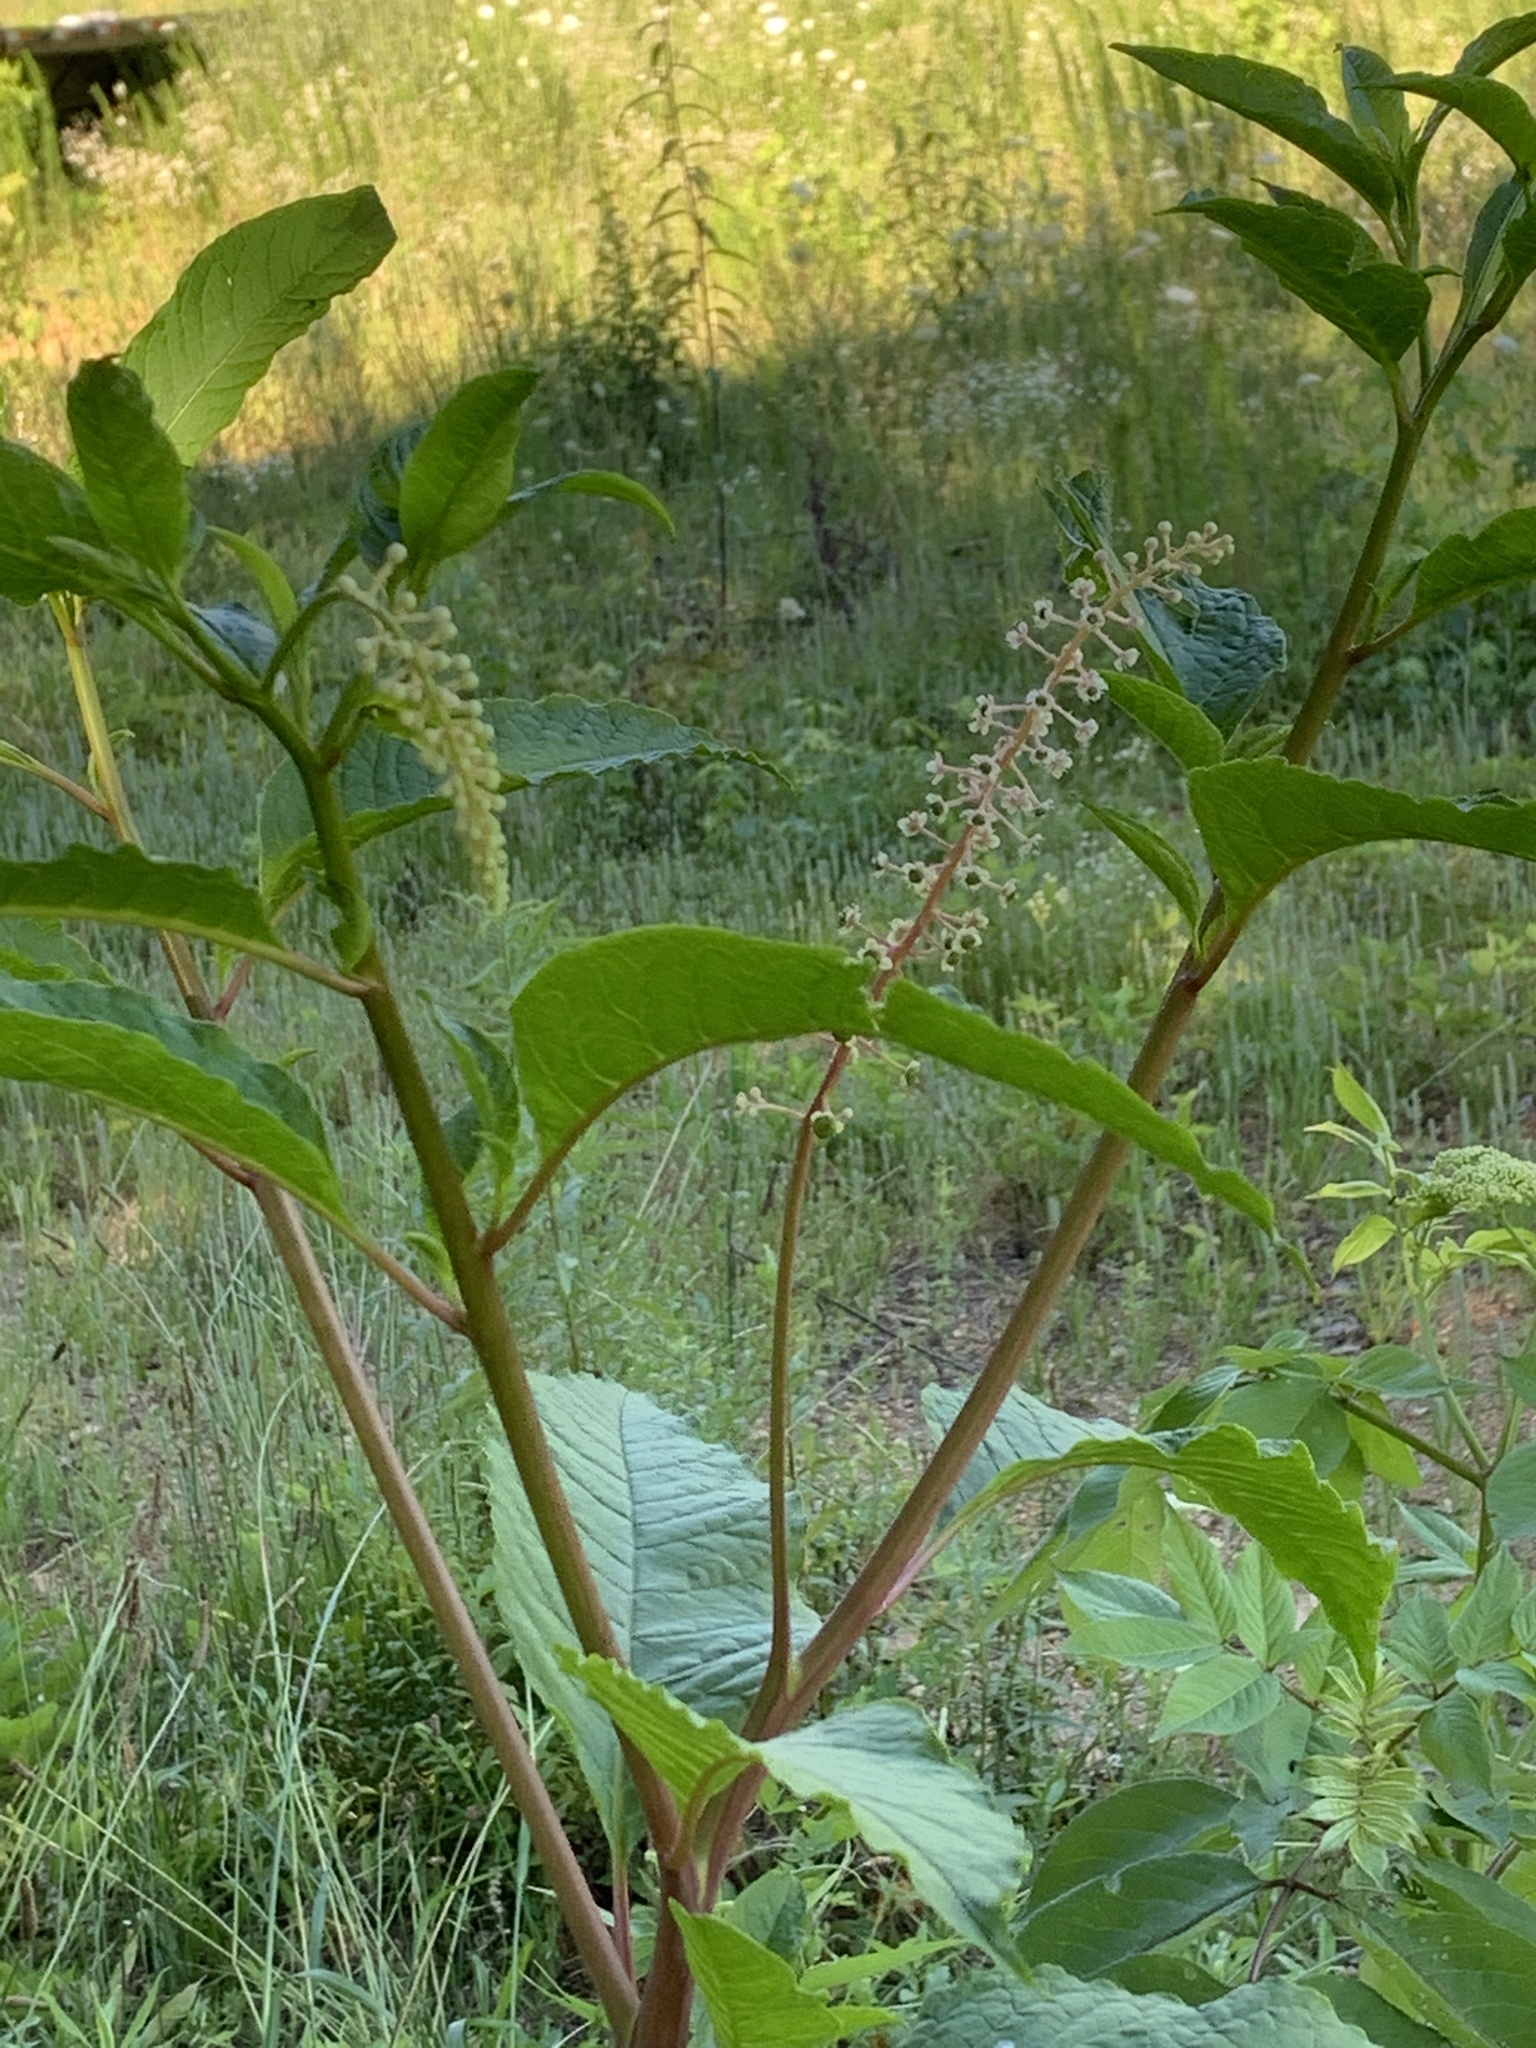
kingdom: Plantae
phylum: Tracheophyta
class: Magnoliopsida
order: Caryophyllales
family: Phytolaccaceae
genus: Phytolacca
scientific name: Phytolacca americana
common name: American pokeweed
